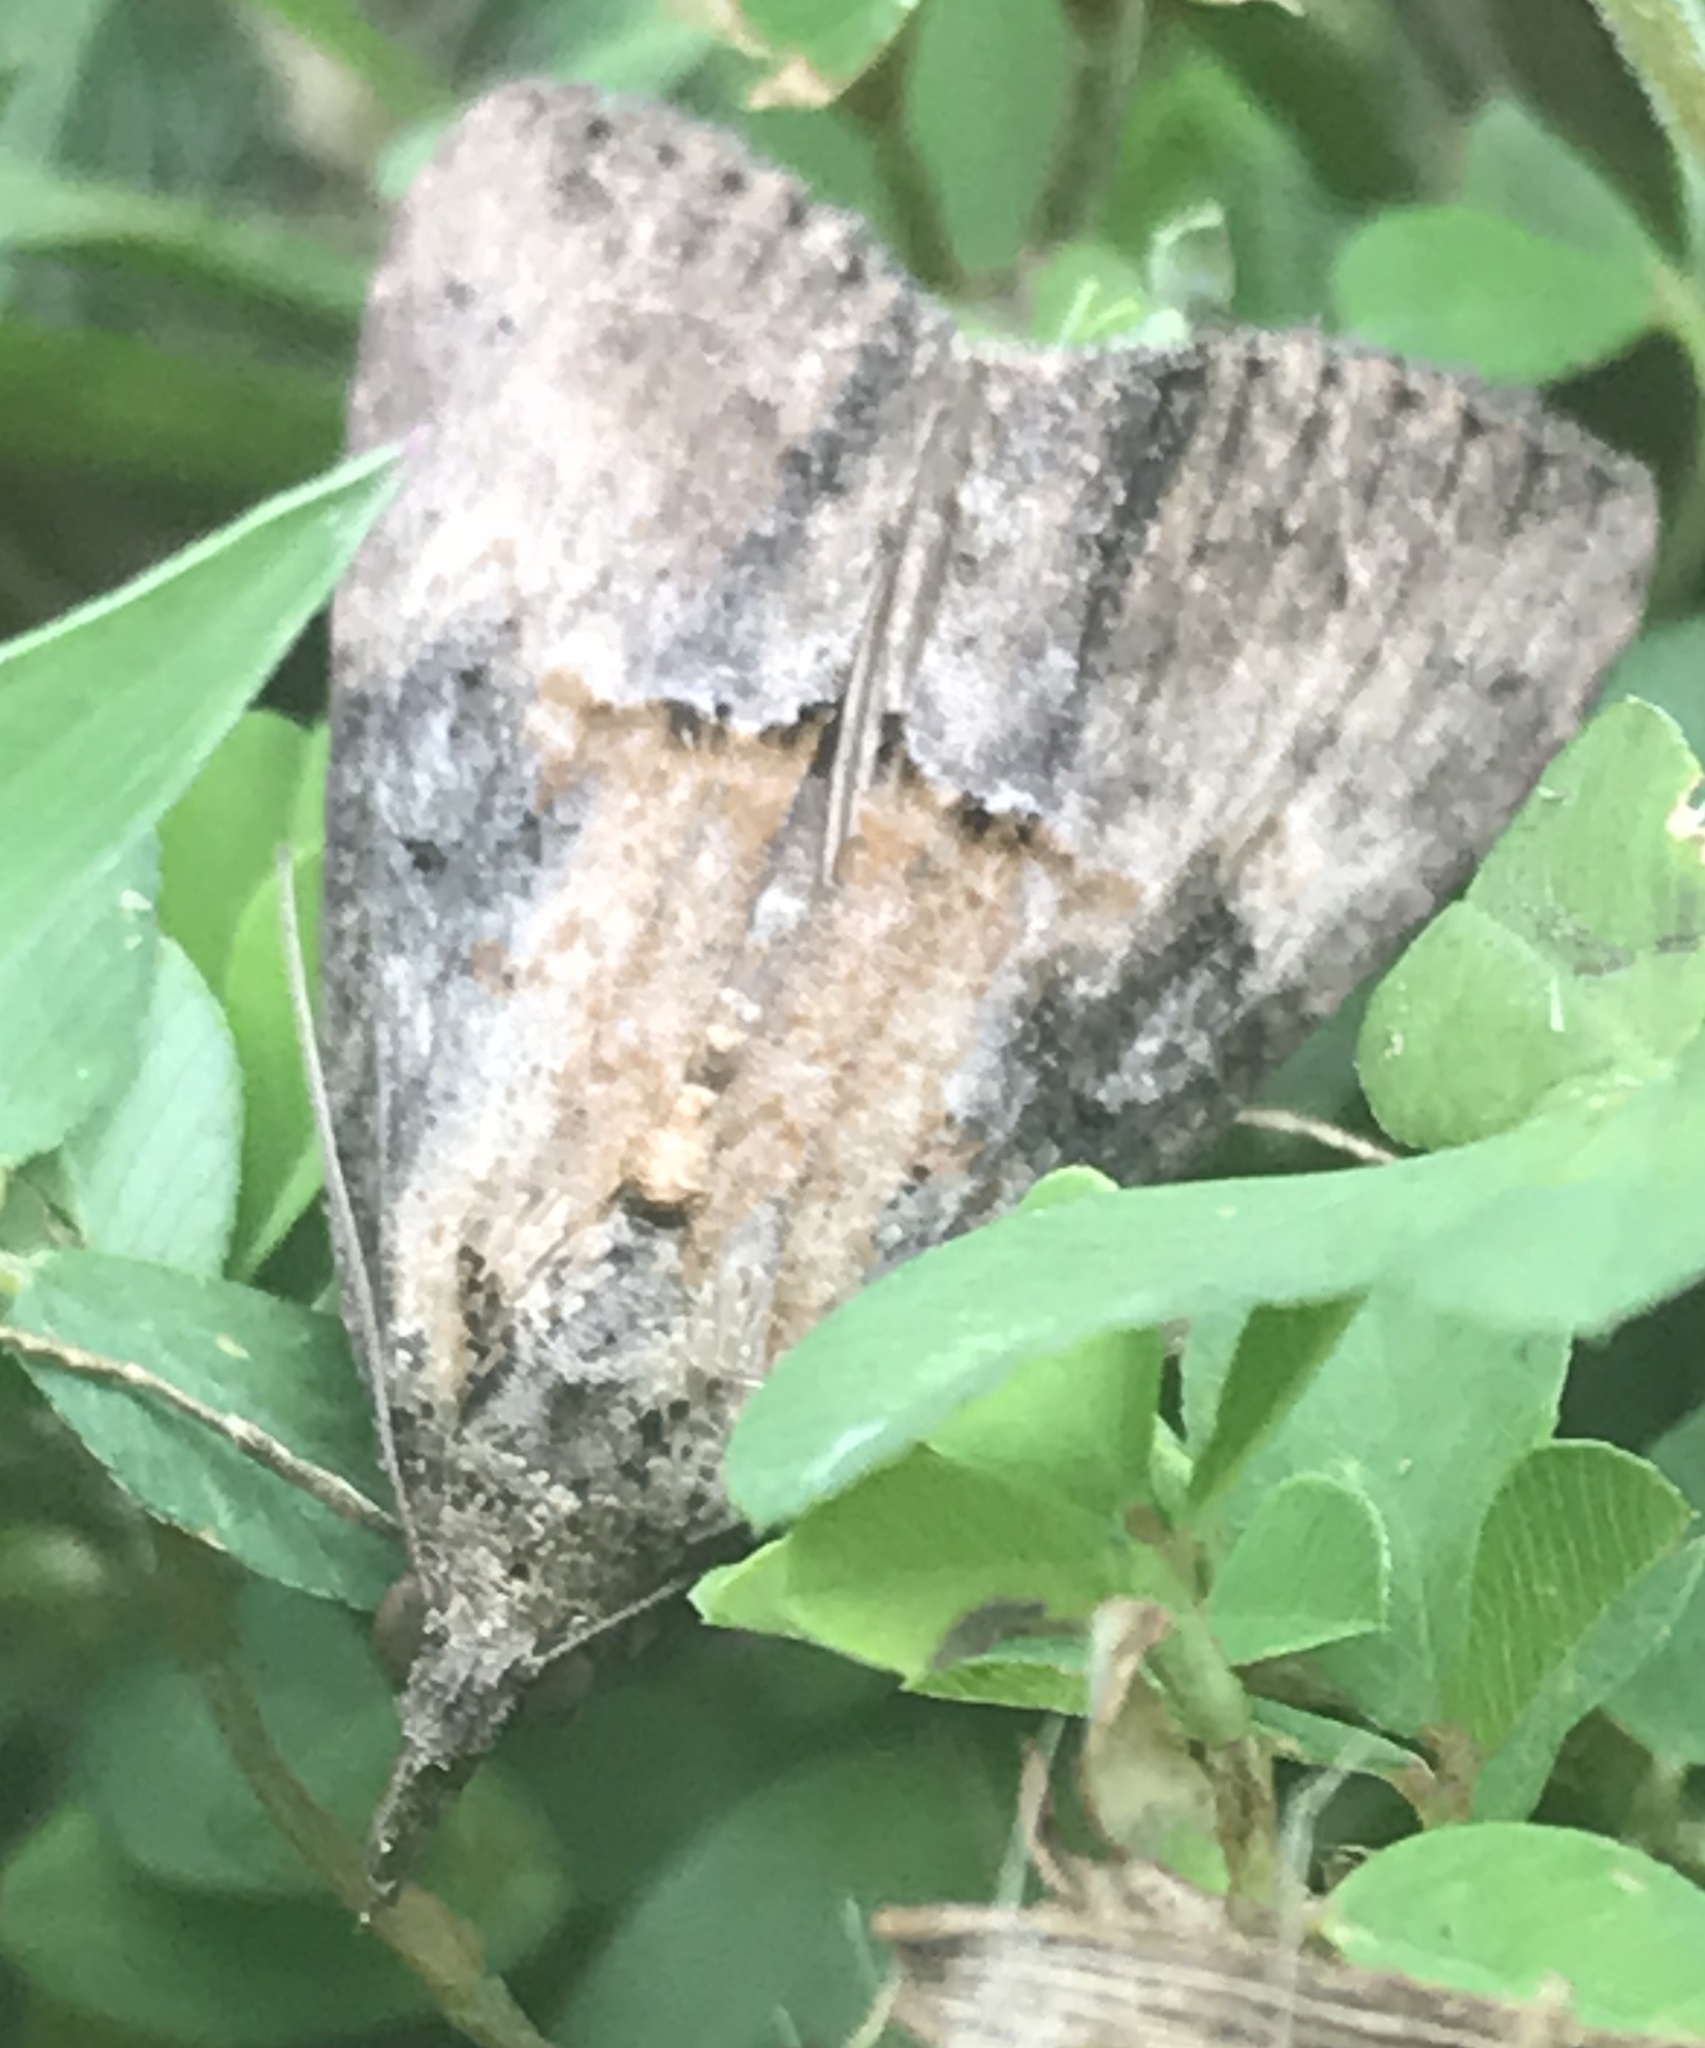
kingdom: Animalia
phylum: Arthropoda
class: Insecta
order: Lepidoptera
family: Erebidae
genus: Hypena
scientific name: Hypena scabra
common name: Green cloverworm
